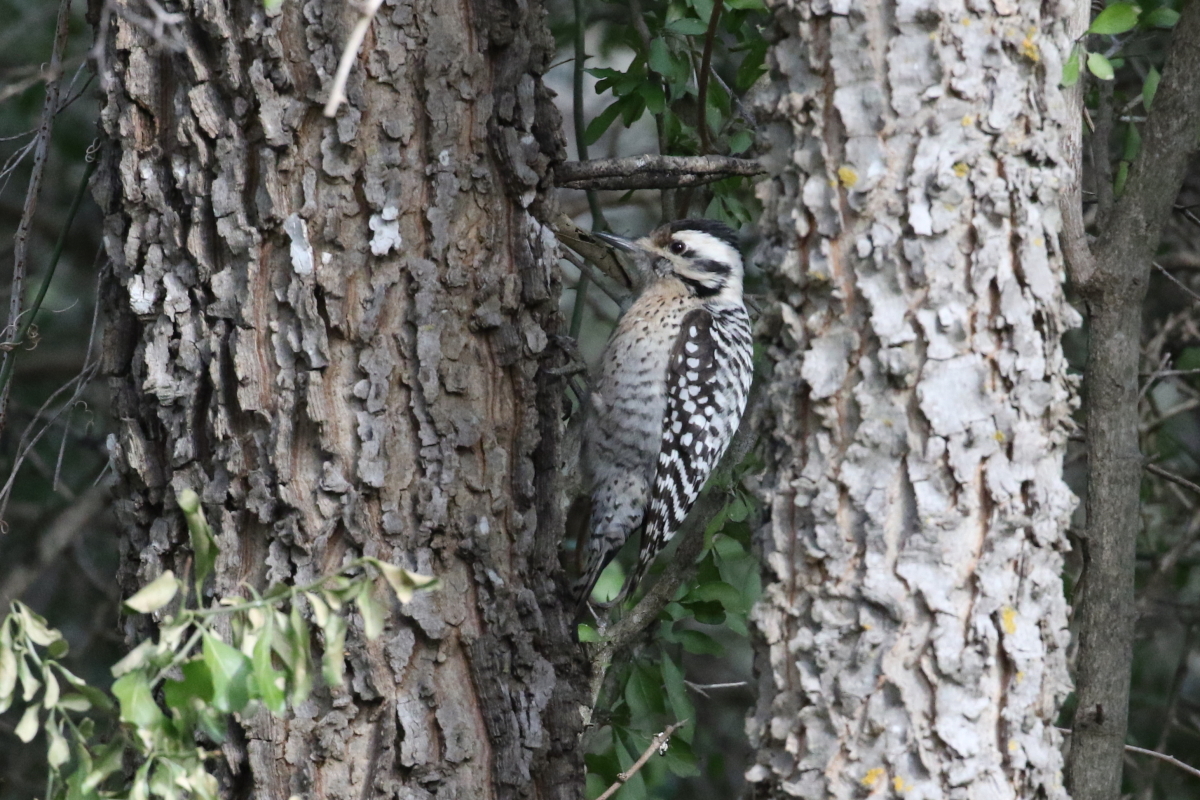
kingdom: Animalia
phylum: Chordata
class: Aves
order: Piciformes
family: Picidae
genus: Dryobates
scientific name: Dryobates scalaris
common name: Ladder-backed woodpecker
